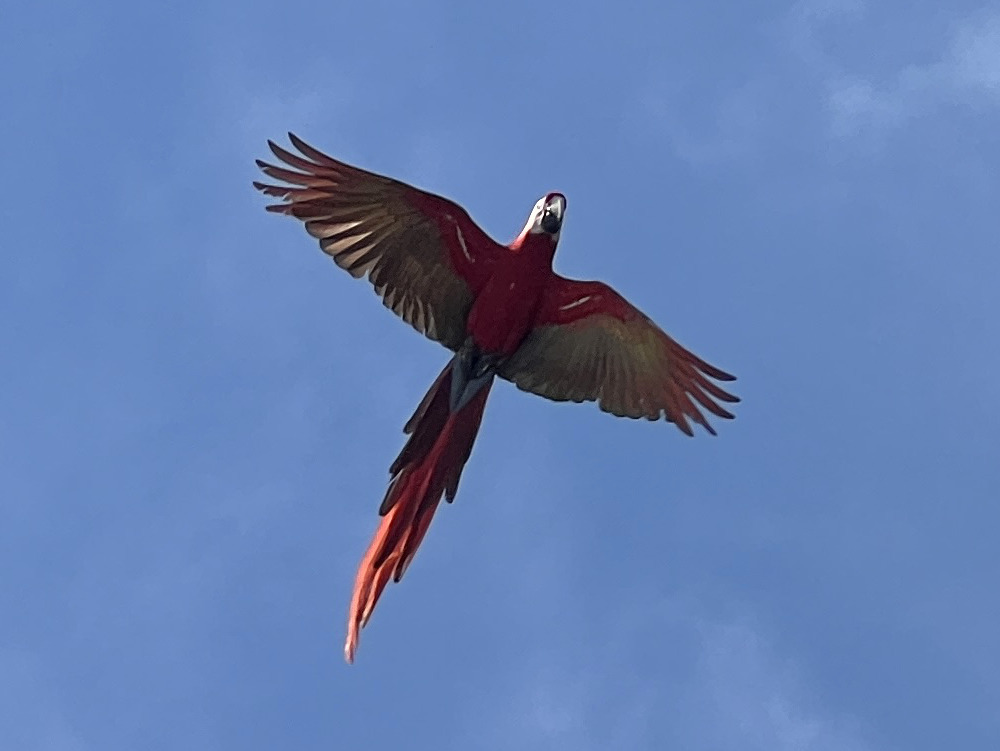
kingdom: Animalia
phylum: Chordata
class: Aves
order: Psittaciformes
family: Psittacidae
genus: Ara
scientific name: Ara macao
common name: Scarlet macaw
